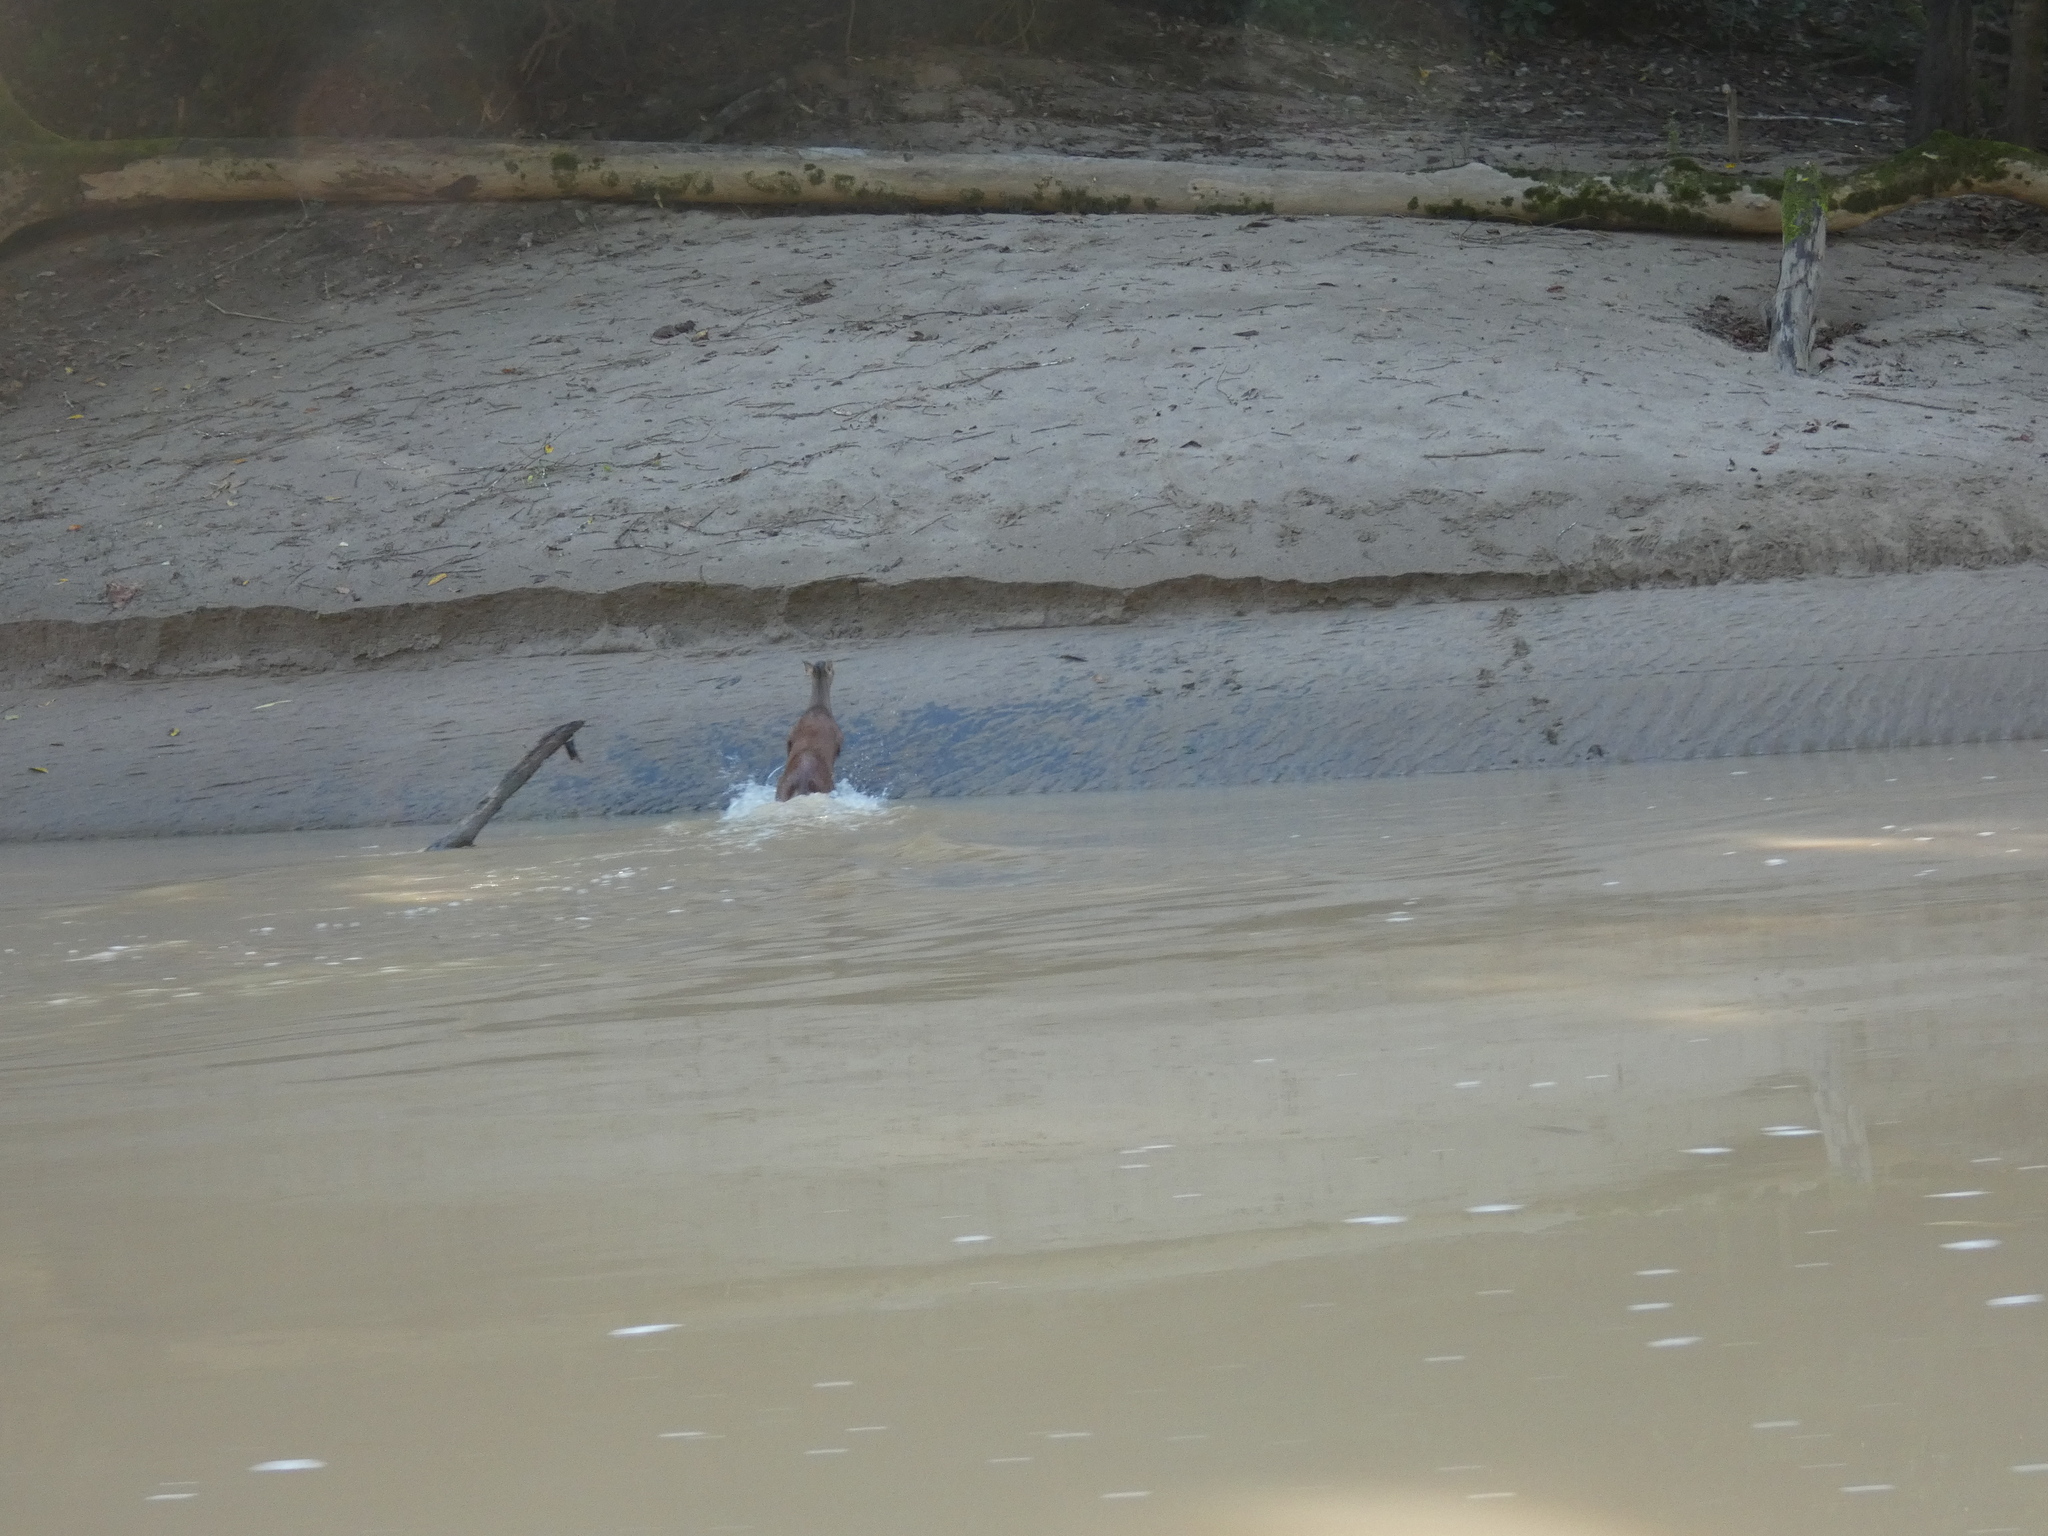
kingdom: Animalia
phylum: Chordata
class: Mammalia
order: Artiodactyla
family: Cervidae
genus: Mazama
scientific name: Mazama americana
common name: Red brocket
